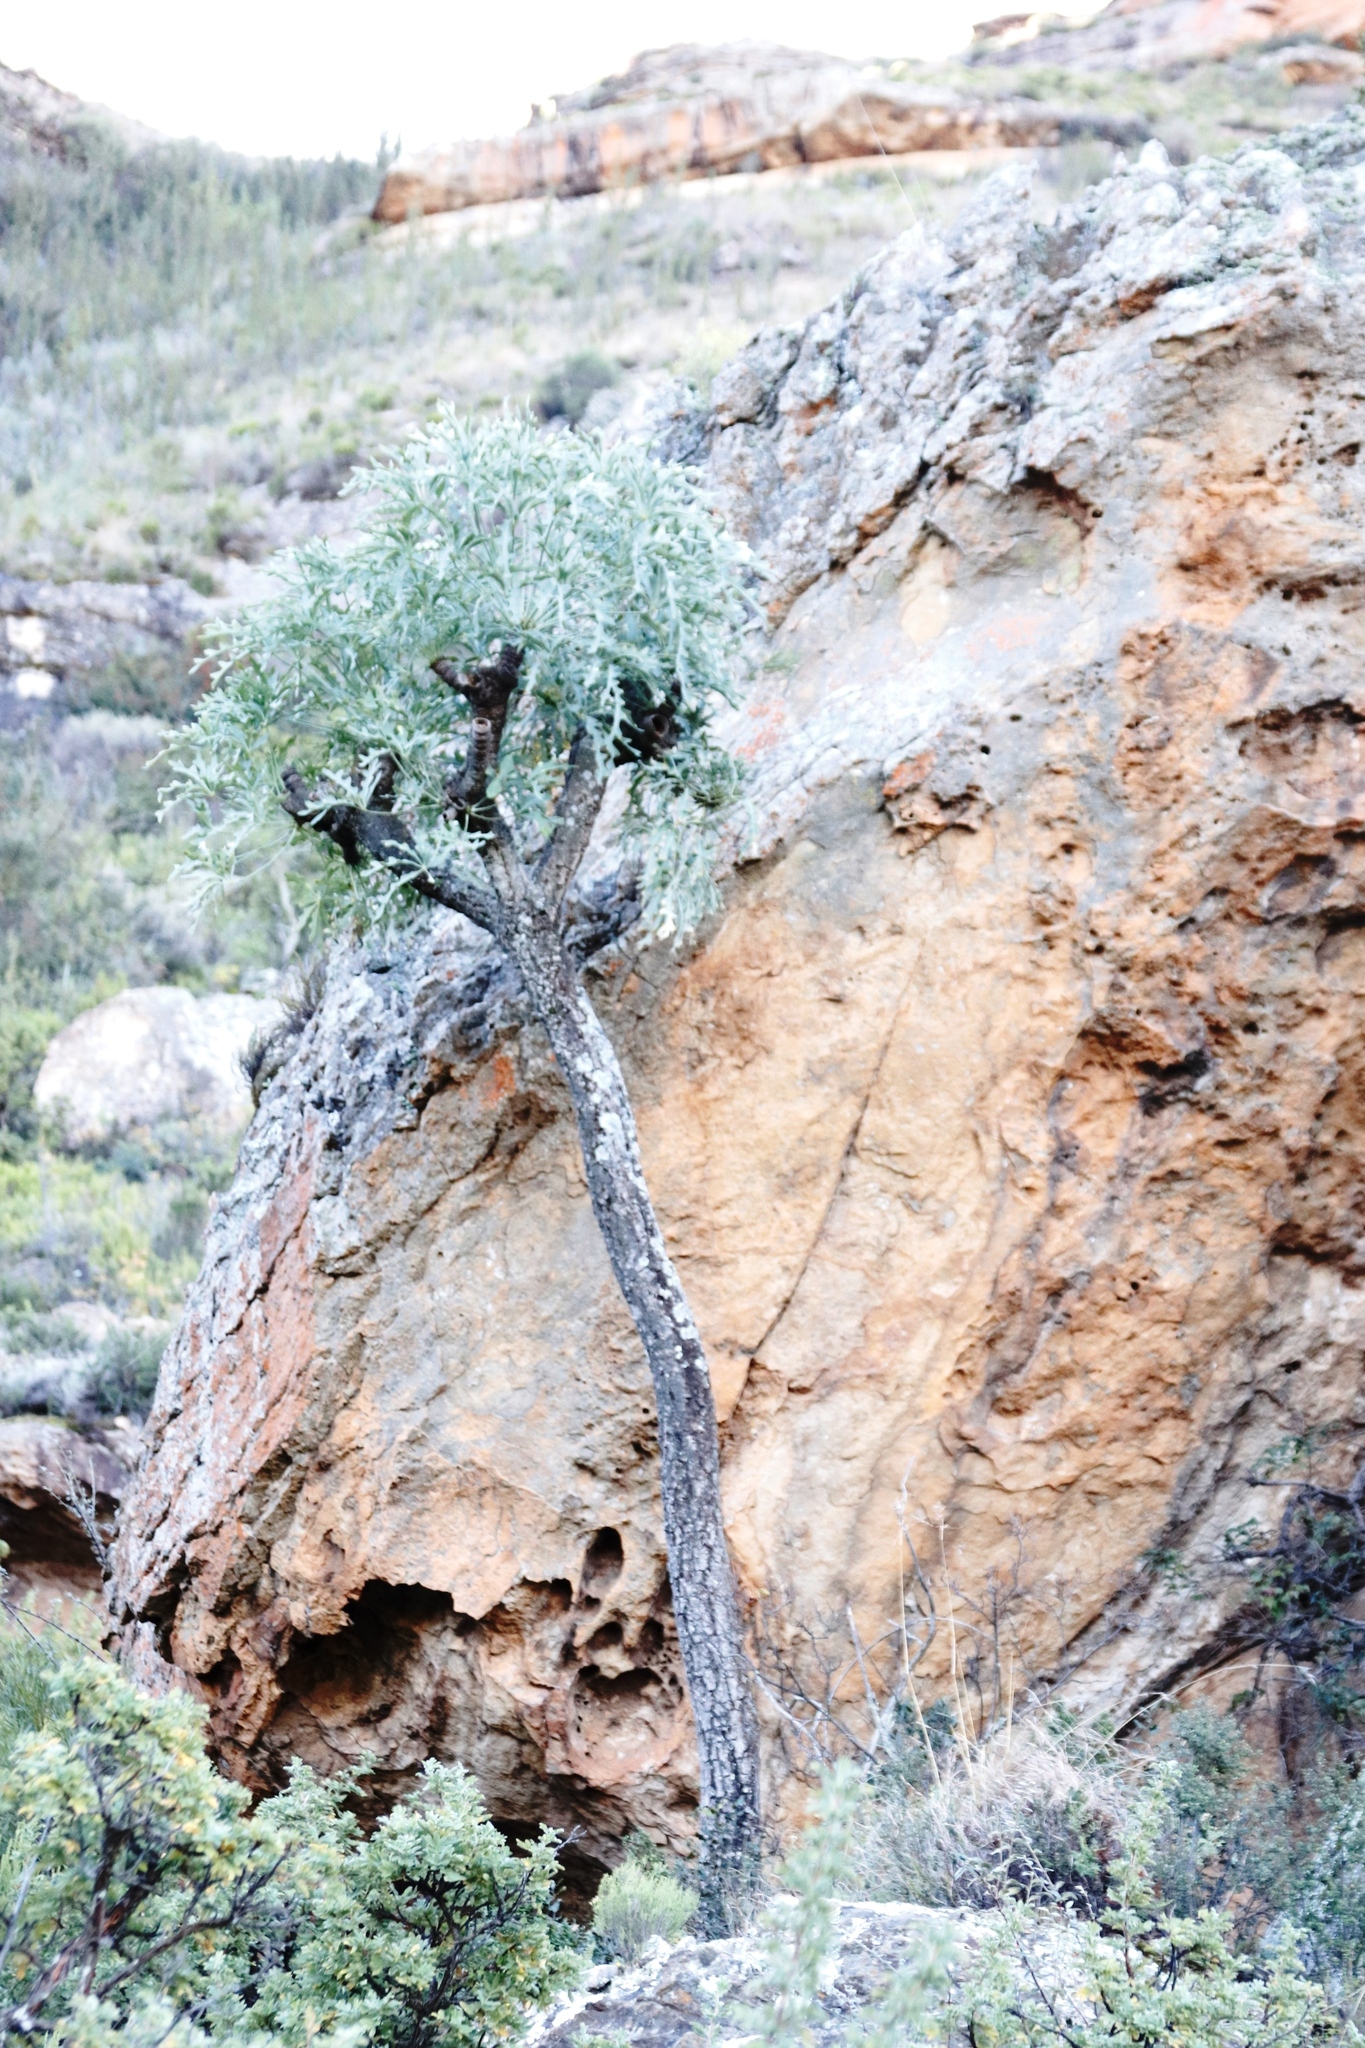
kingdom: Plantae
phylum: Tracheophyta
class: Magnoliopsida
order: Apiales
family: Araliaceae
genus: Cussonia
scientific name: Cussonia paniculata
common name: Cabbagetree
